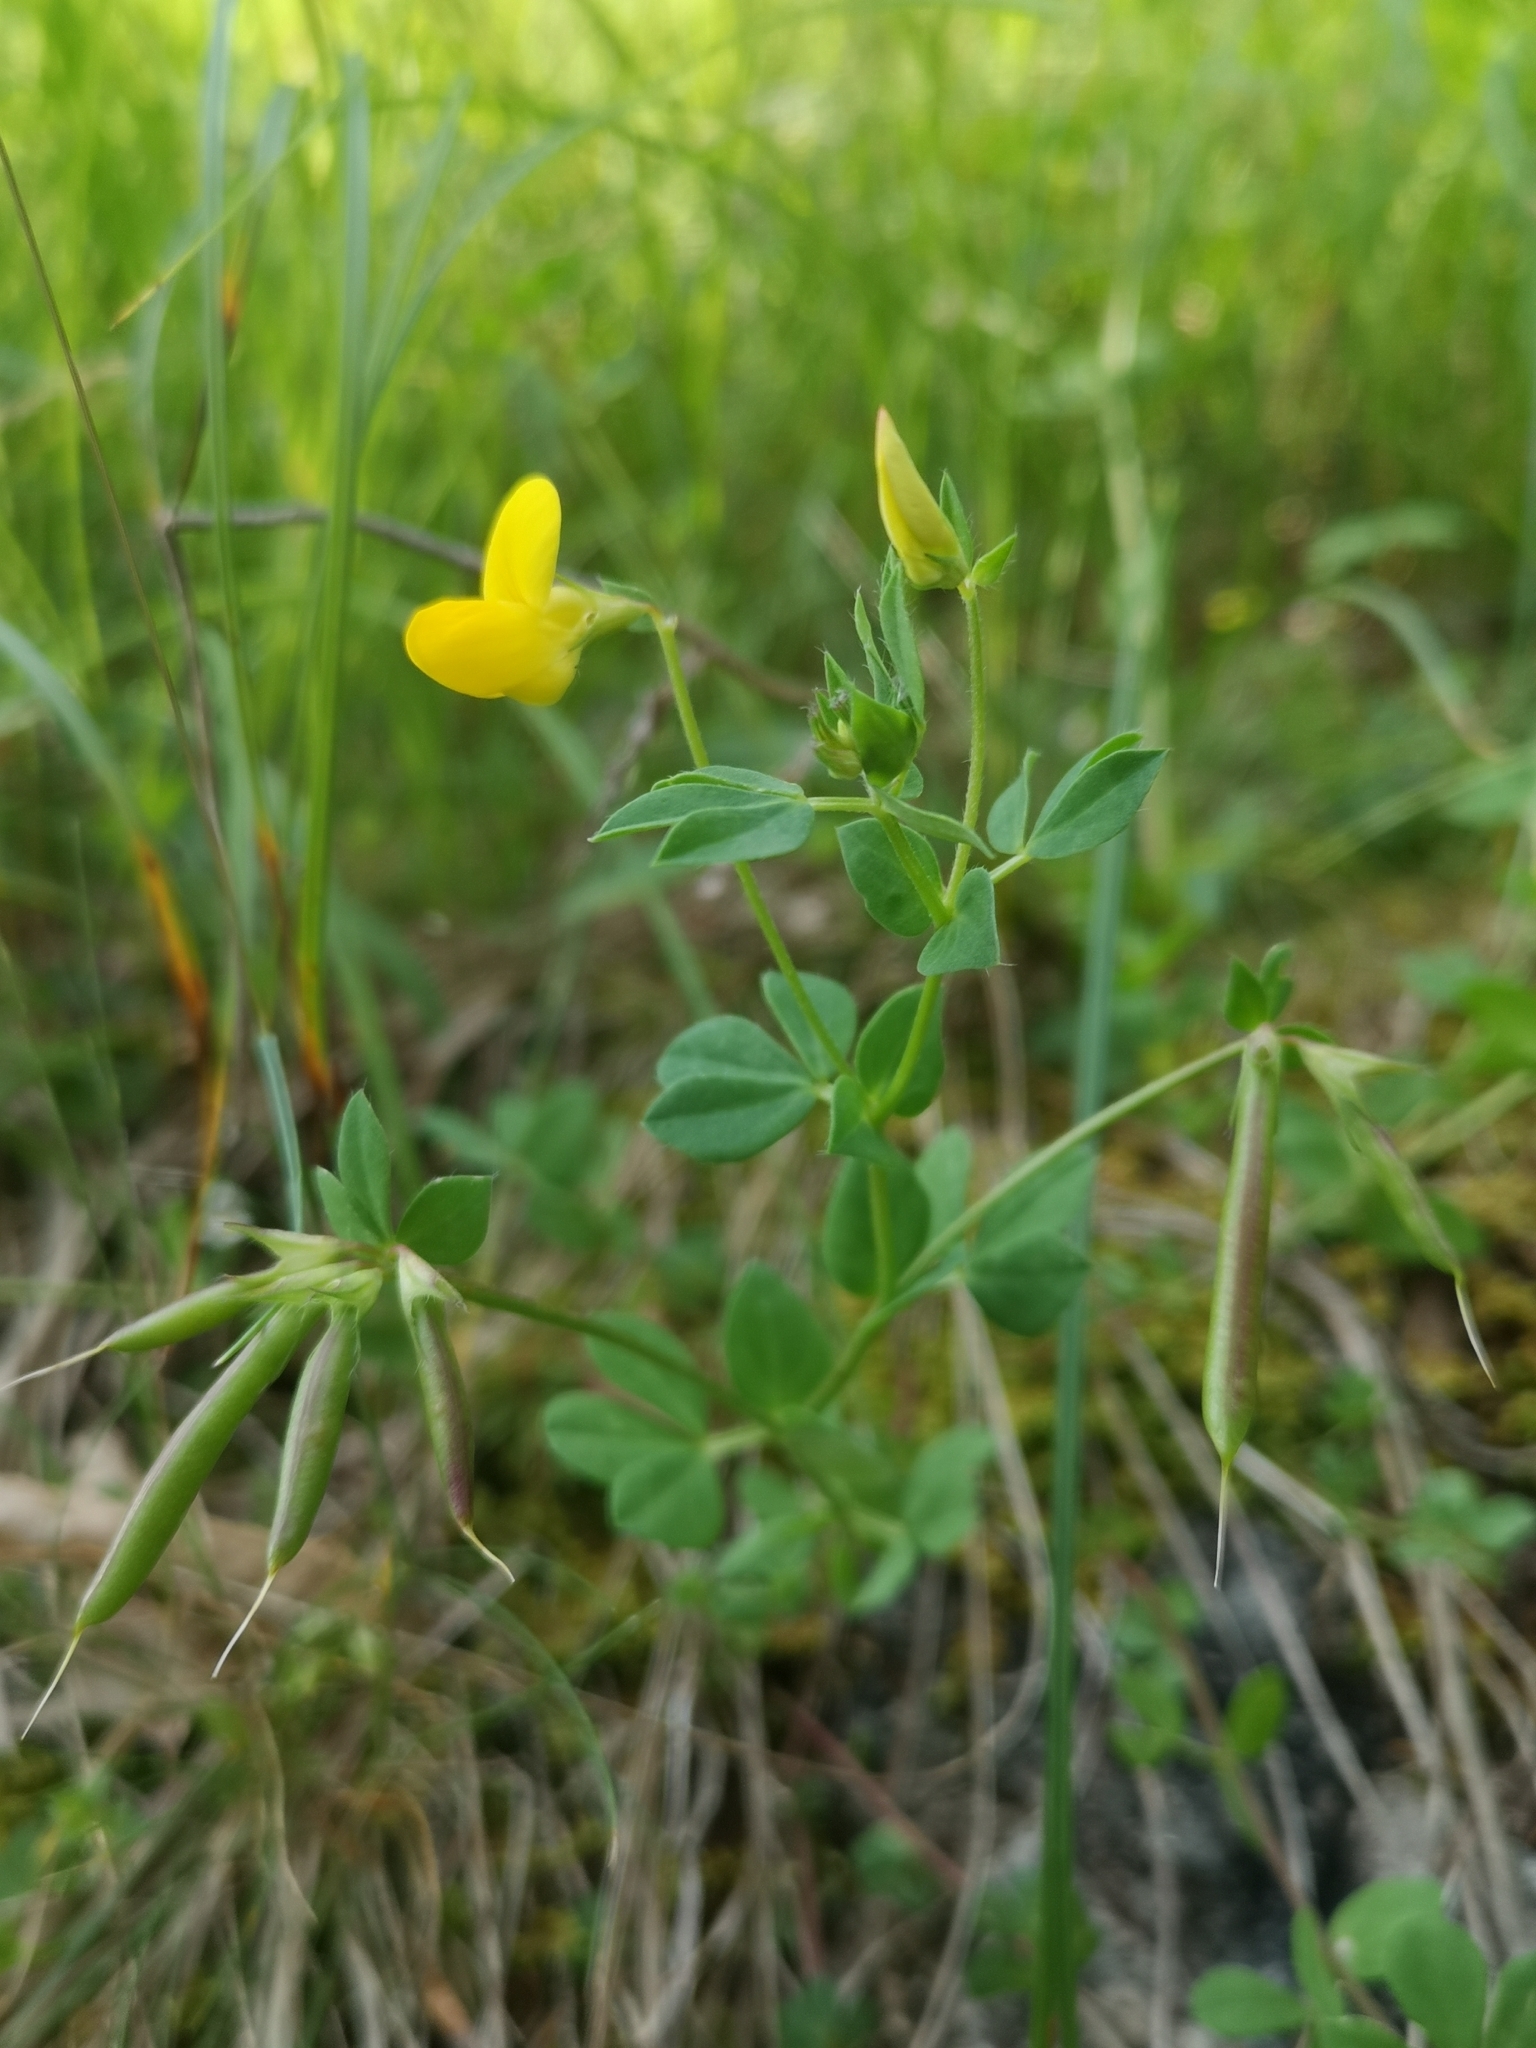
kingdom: Plantae
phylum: Tracheophyta
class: Magnoliopsida
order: Fabales
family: Fabaceae
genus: Lotus
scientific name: Lotus corniculatus
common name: Common bird's-foot-trefoil
